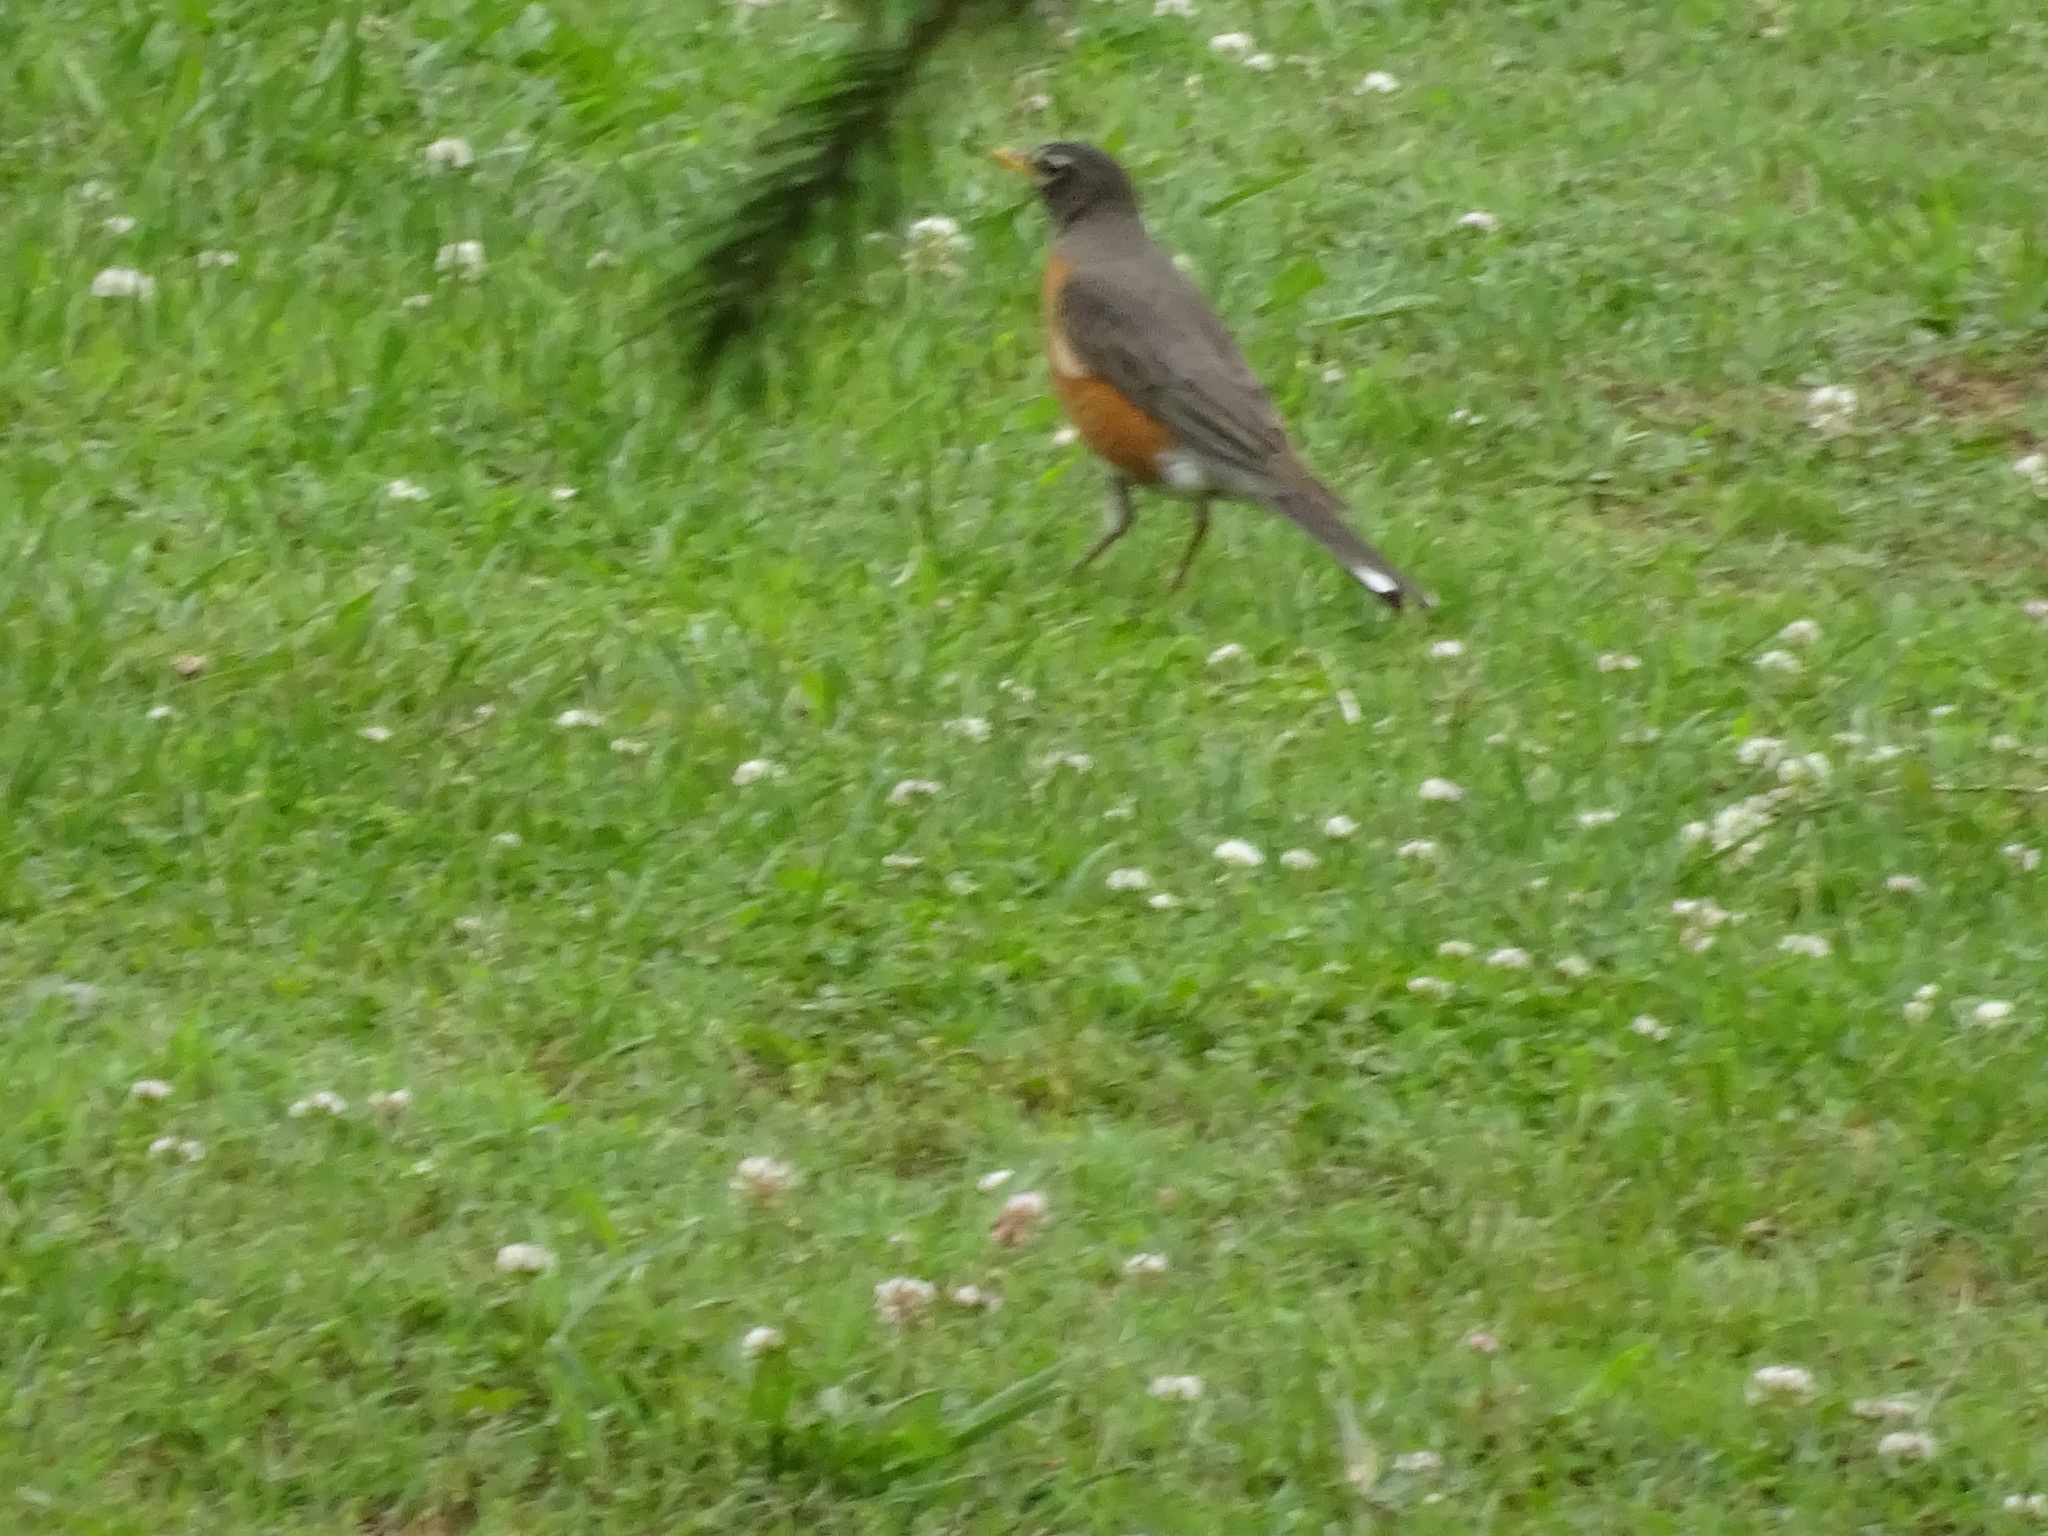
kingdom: Animalia
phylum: Chordata
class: Aves
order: Passeriformes
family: Turdidae
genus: Turdus
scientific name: Turdus migratorius
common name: American robin
